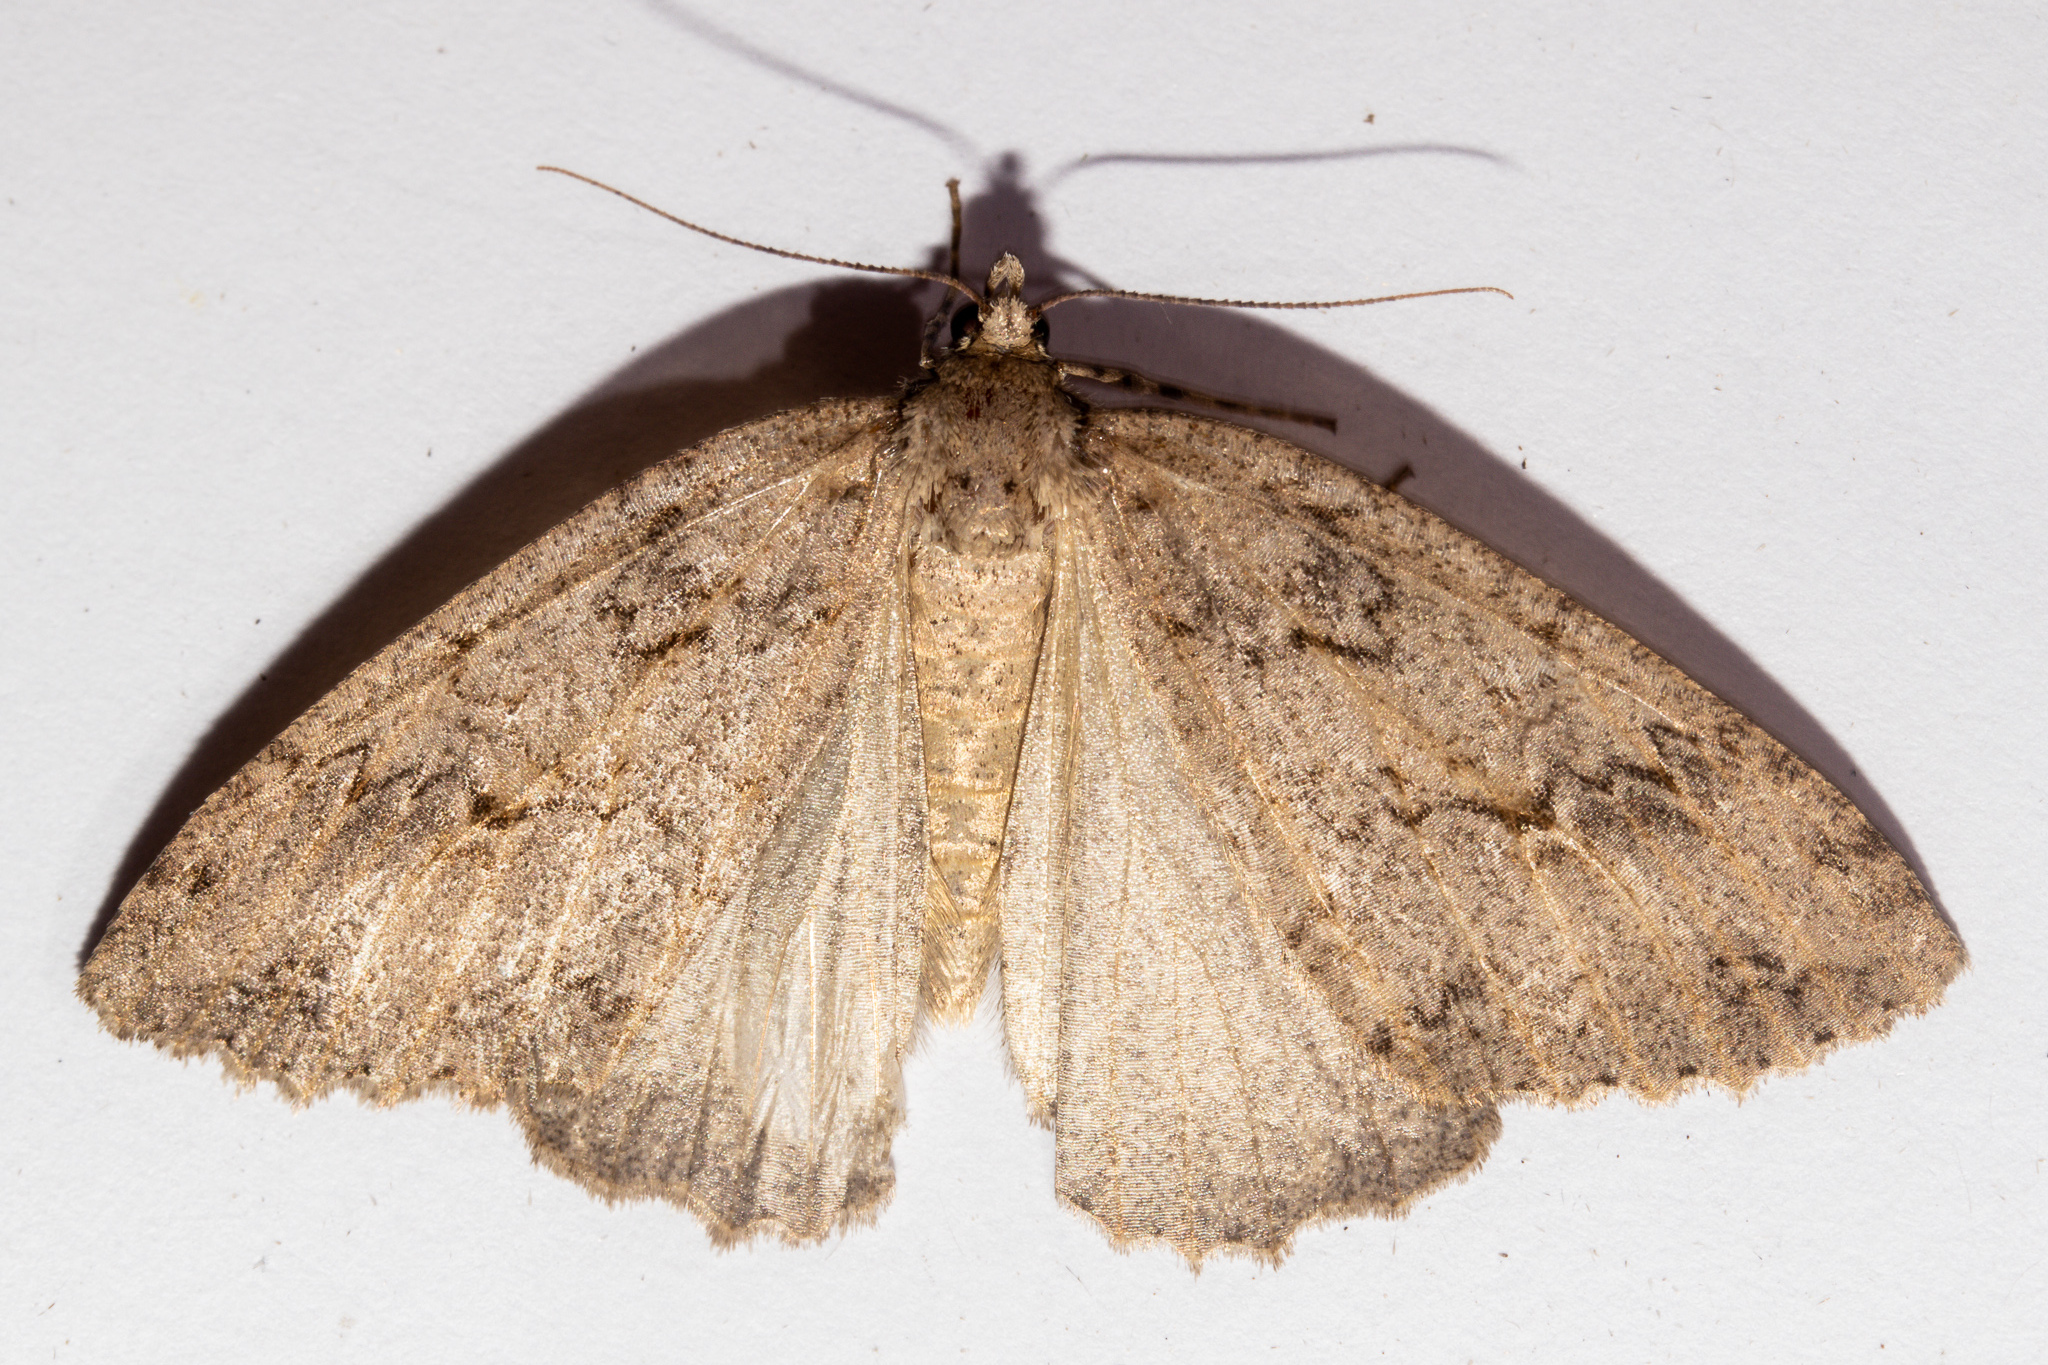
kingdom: Animalia
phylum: Arthropoda
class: Insecta
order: Lepidoptera
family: Geometridae
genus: Pseudocoremia
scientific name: Pseudocoremia rudisata
